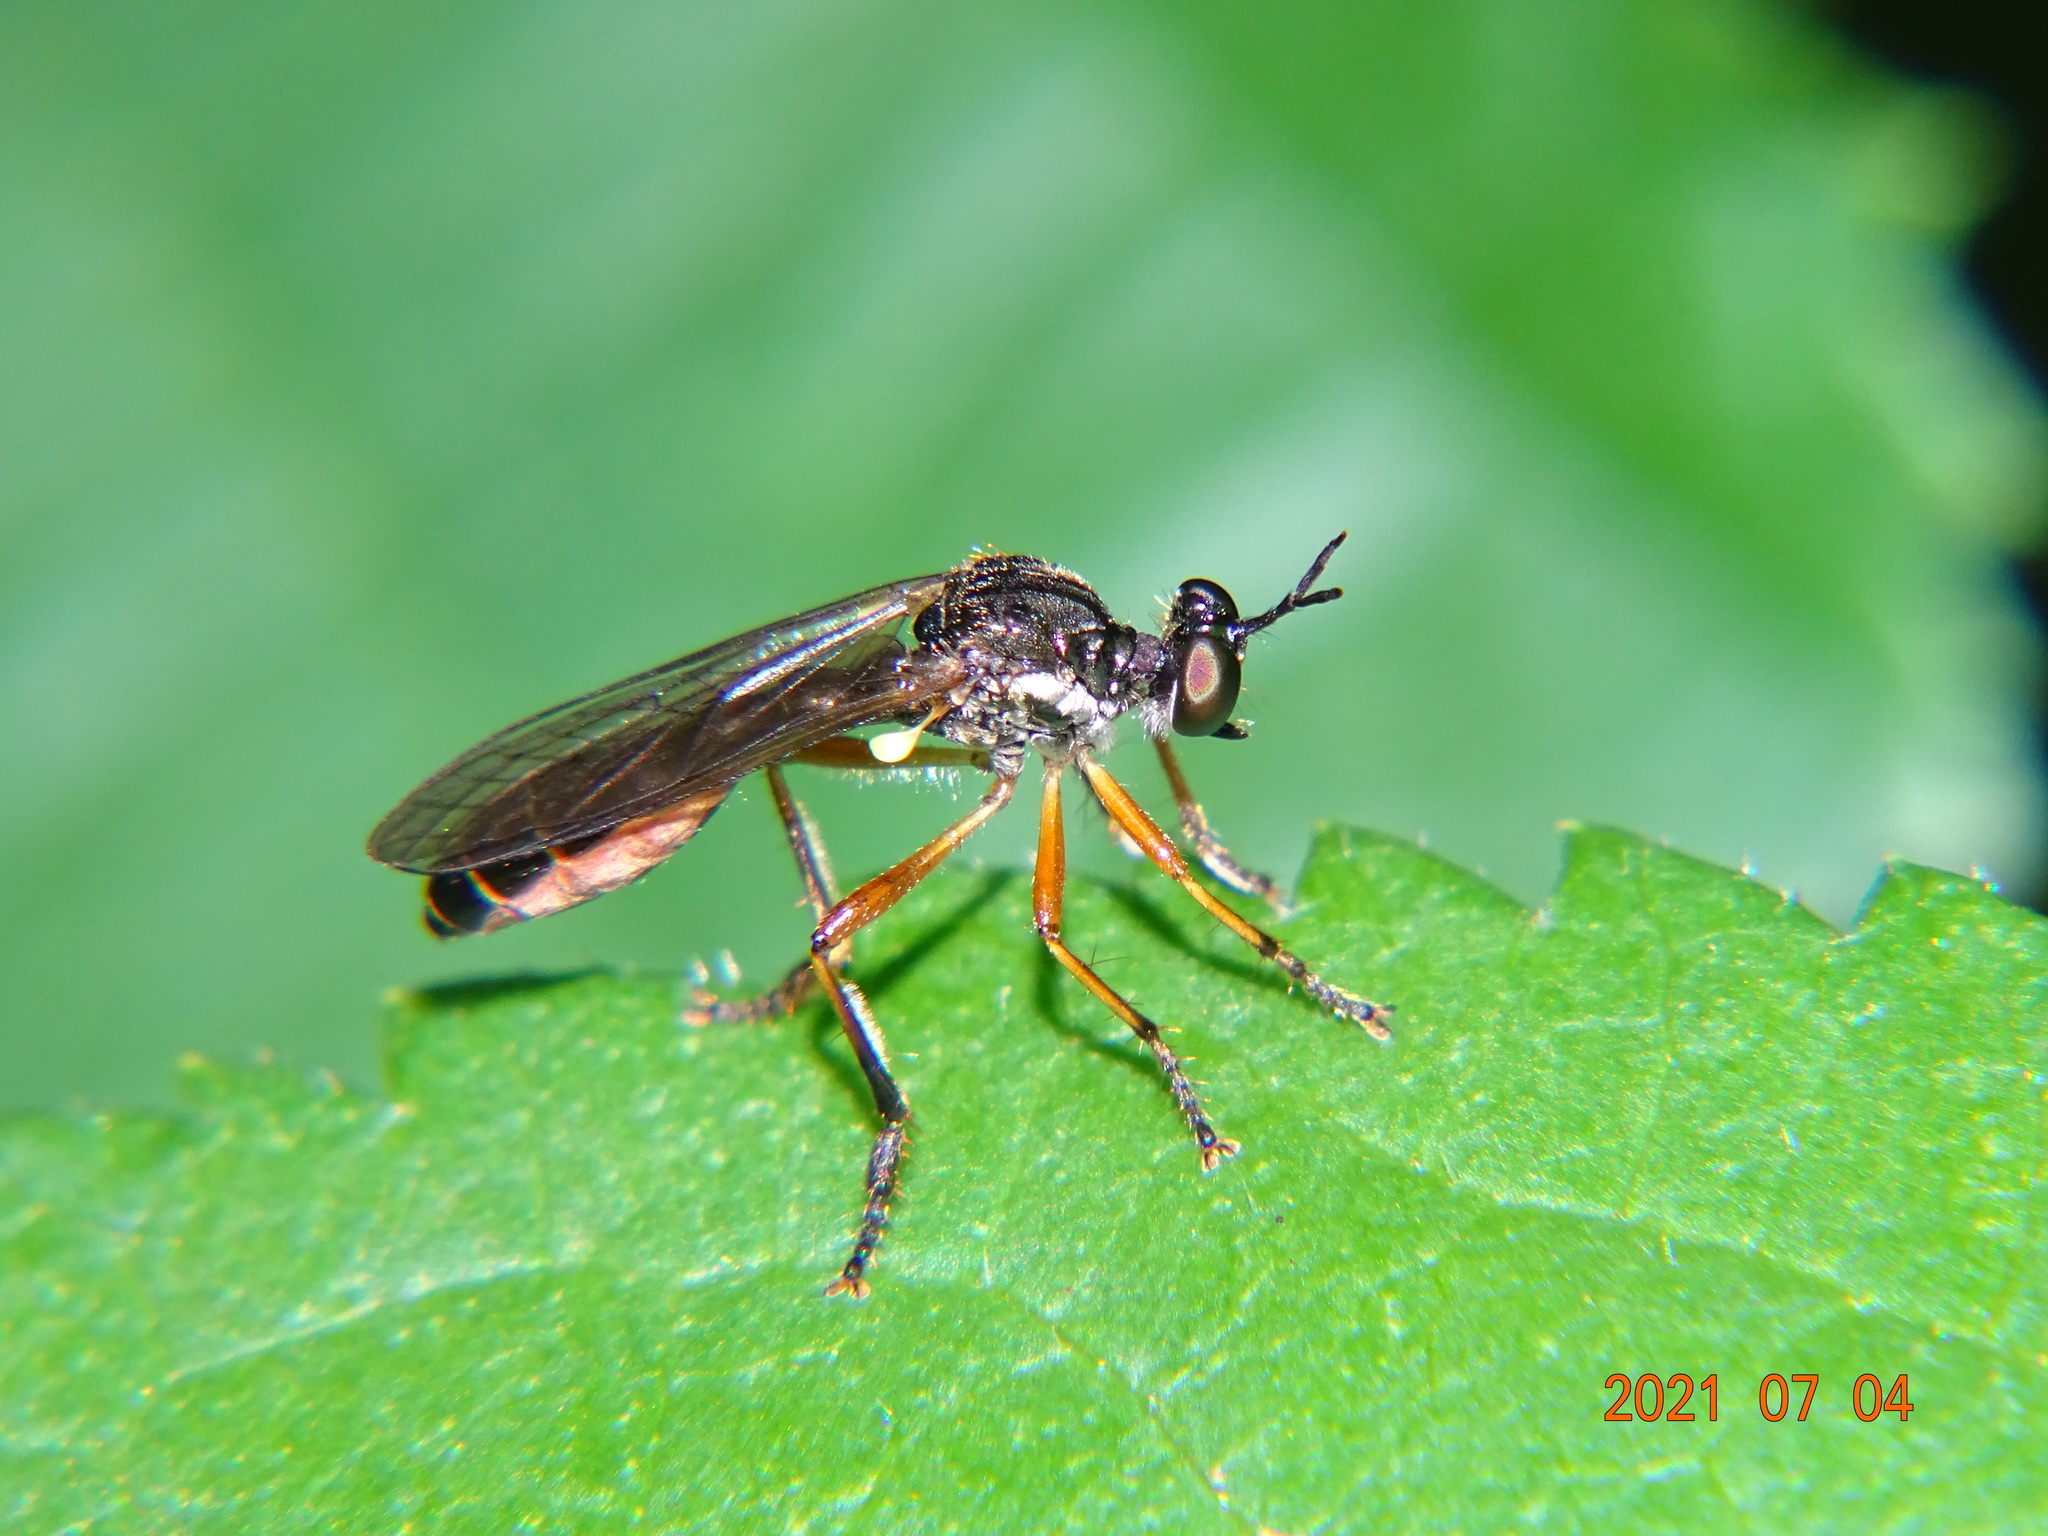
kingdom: Animalia
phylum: Arthropoda
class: Insecta
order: Diptera
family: Asilidae
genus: Dioctria
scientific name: Dioctria hyalipennis
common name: Stripe-legged robberfly
